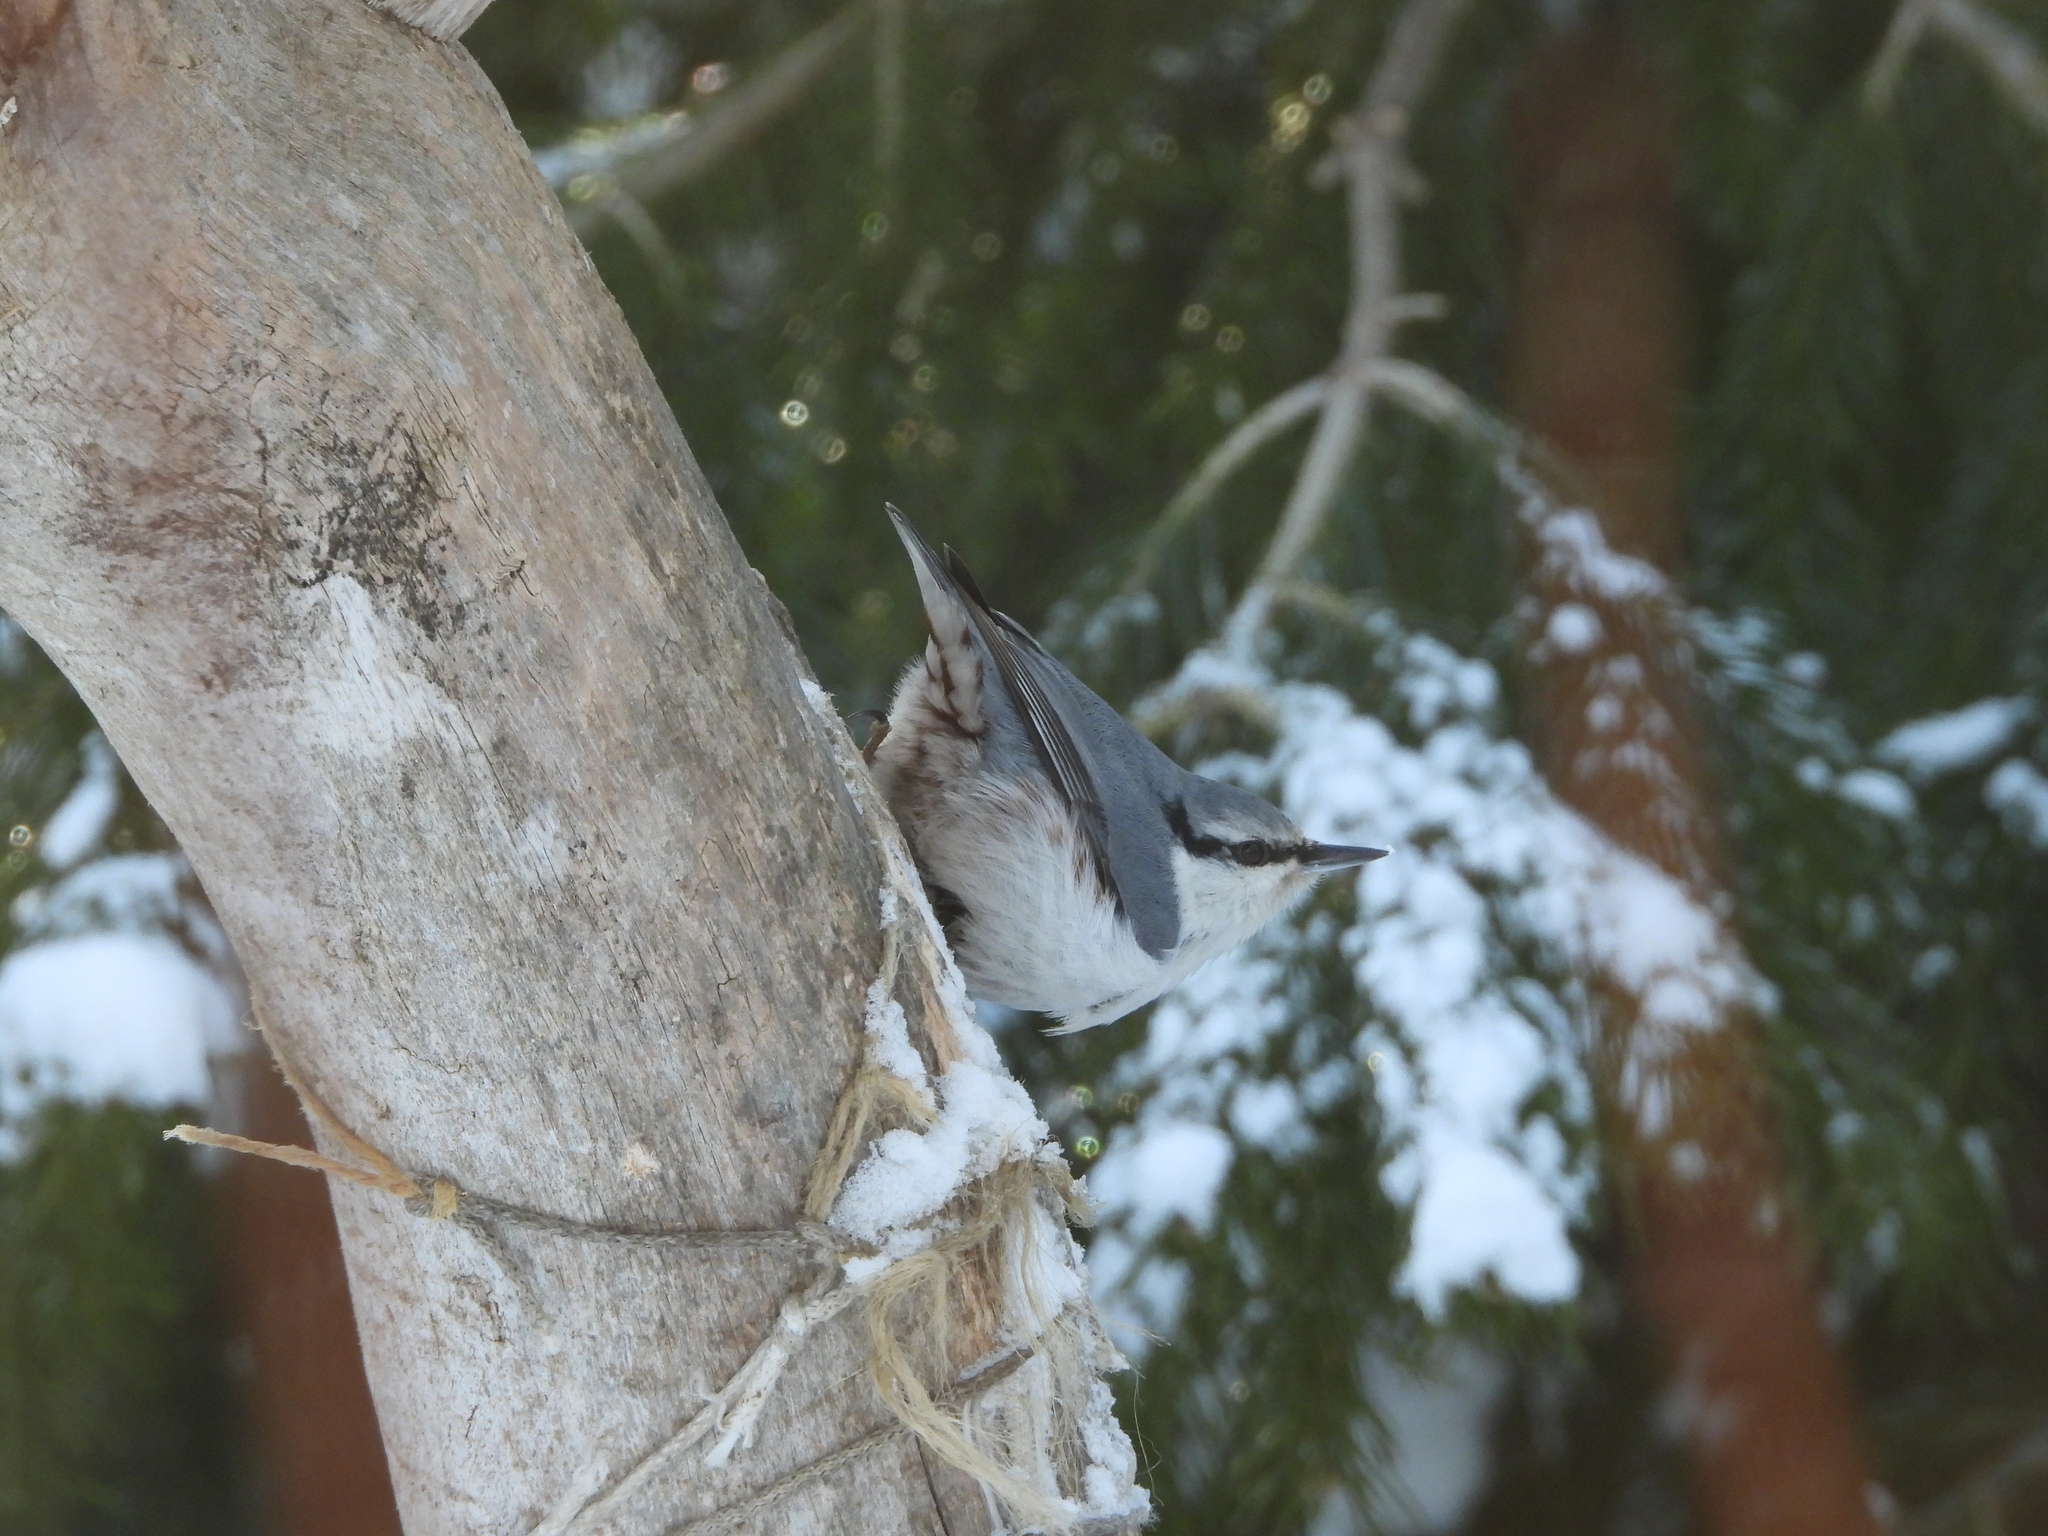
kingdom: Animalia
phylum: Chordata
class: Aves
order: Passeriformes
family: Sittidae
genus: Sitta
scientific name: Sitta europaea
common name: Eurasian nuthatch
